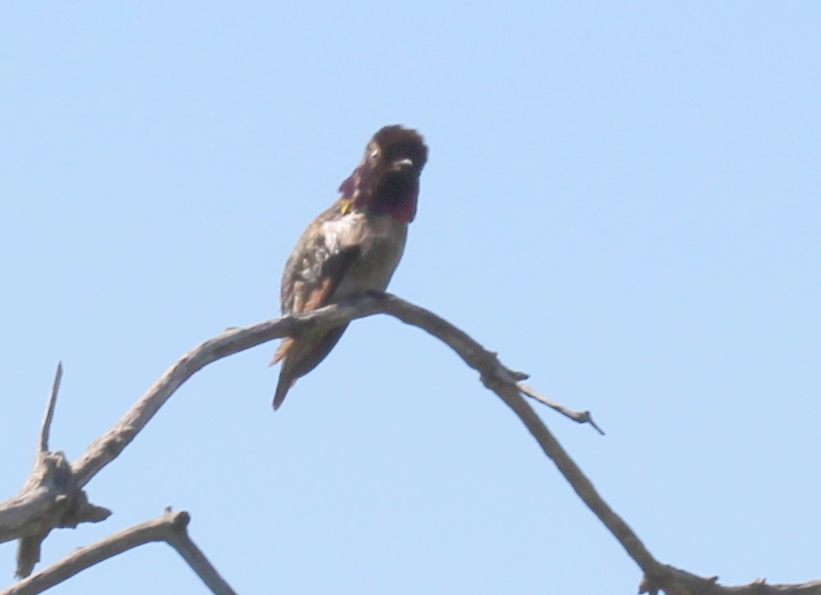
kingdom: Animalia
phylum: Chordata
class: Aves
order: Apodiformes
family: Trochilidae
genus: Calypte
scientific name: Calypte anna
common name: Anna's hummingbird
